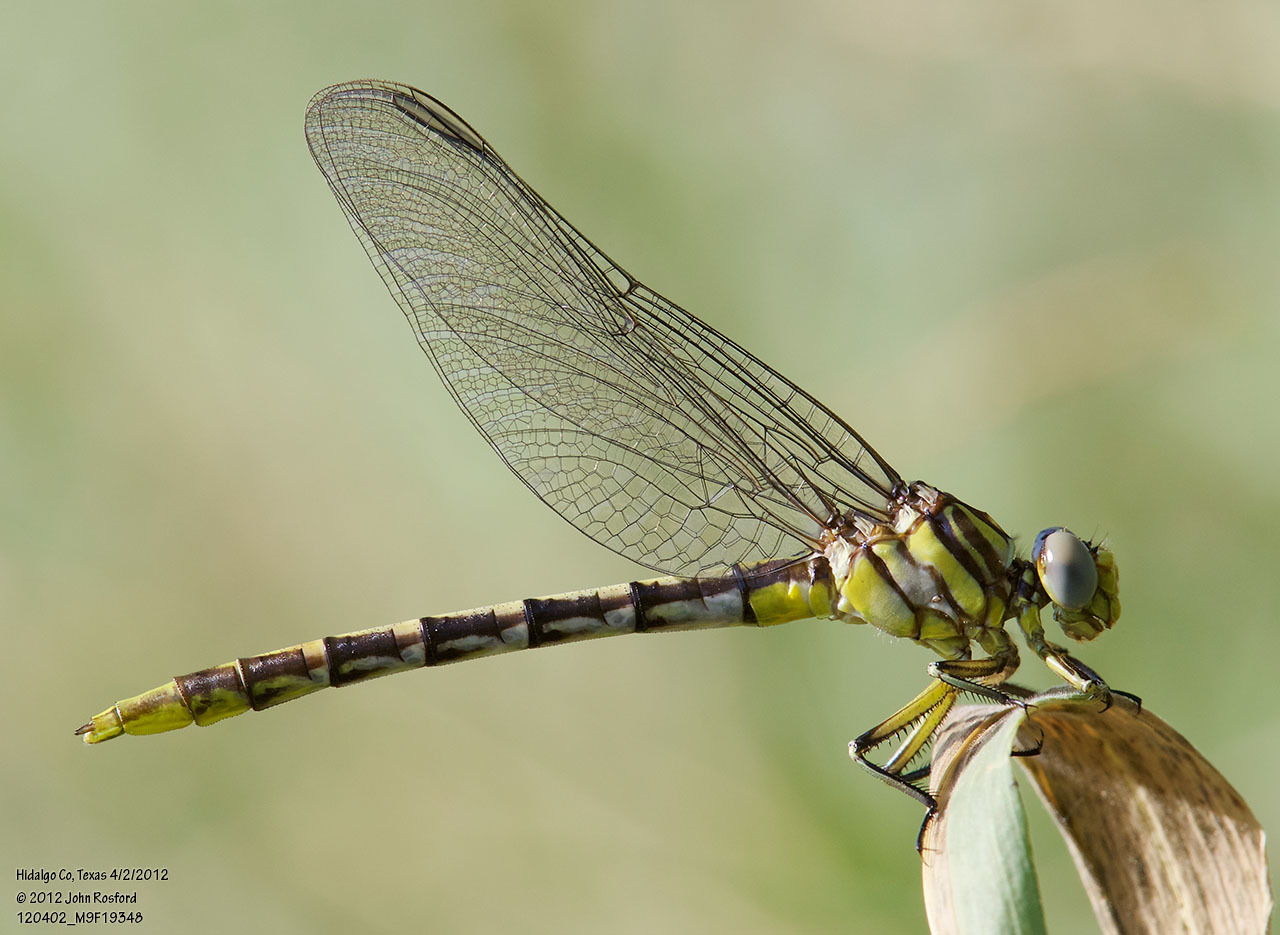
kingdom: Animalia
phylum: Arthropoda
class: Insecta
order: Odonata
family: Gomphidae
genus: Phanogomphus
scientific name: Phanogomphus militaris
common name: Sulphur-tipped clubtail
